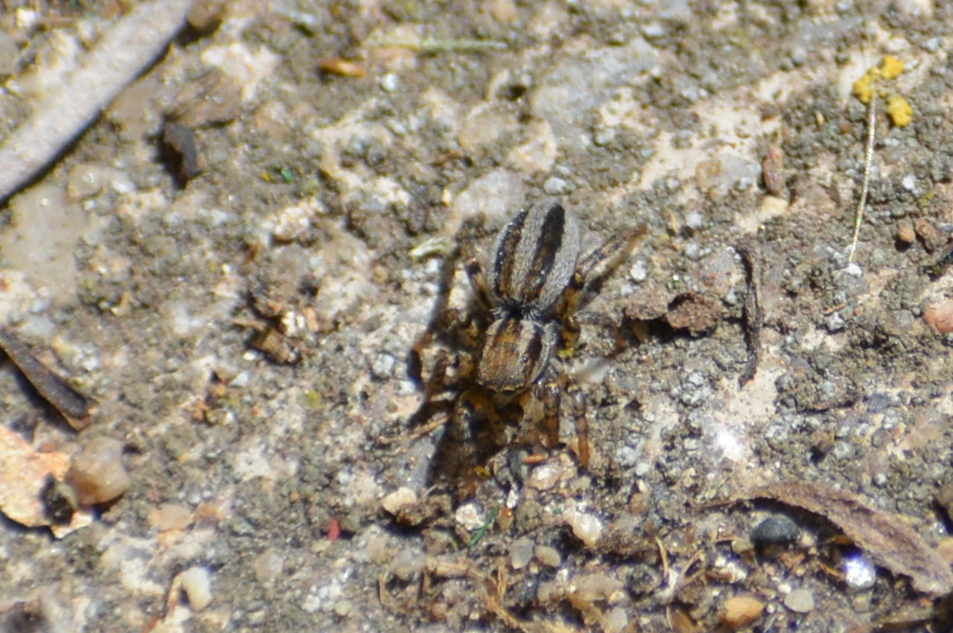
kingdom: Animalia
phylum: Arthropoda
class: Arachnida
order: Araneae
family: Salticidae
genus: Phlegra
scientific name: Phlegra fasciata
